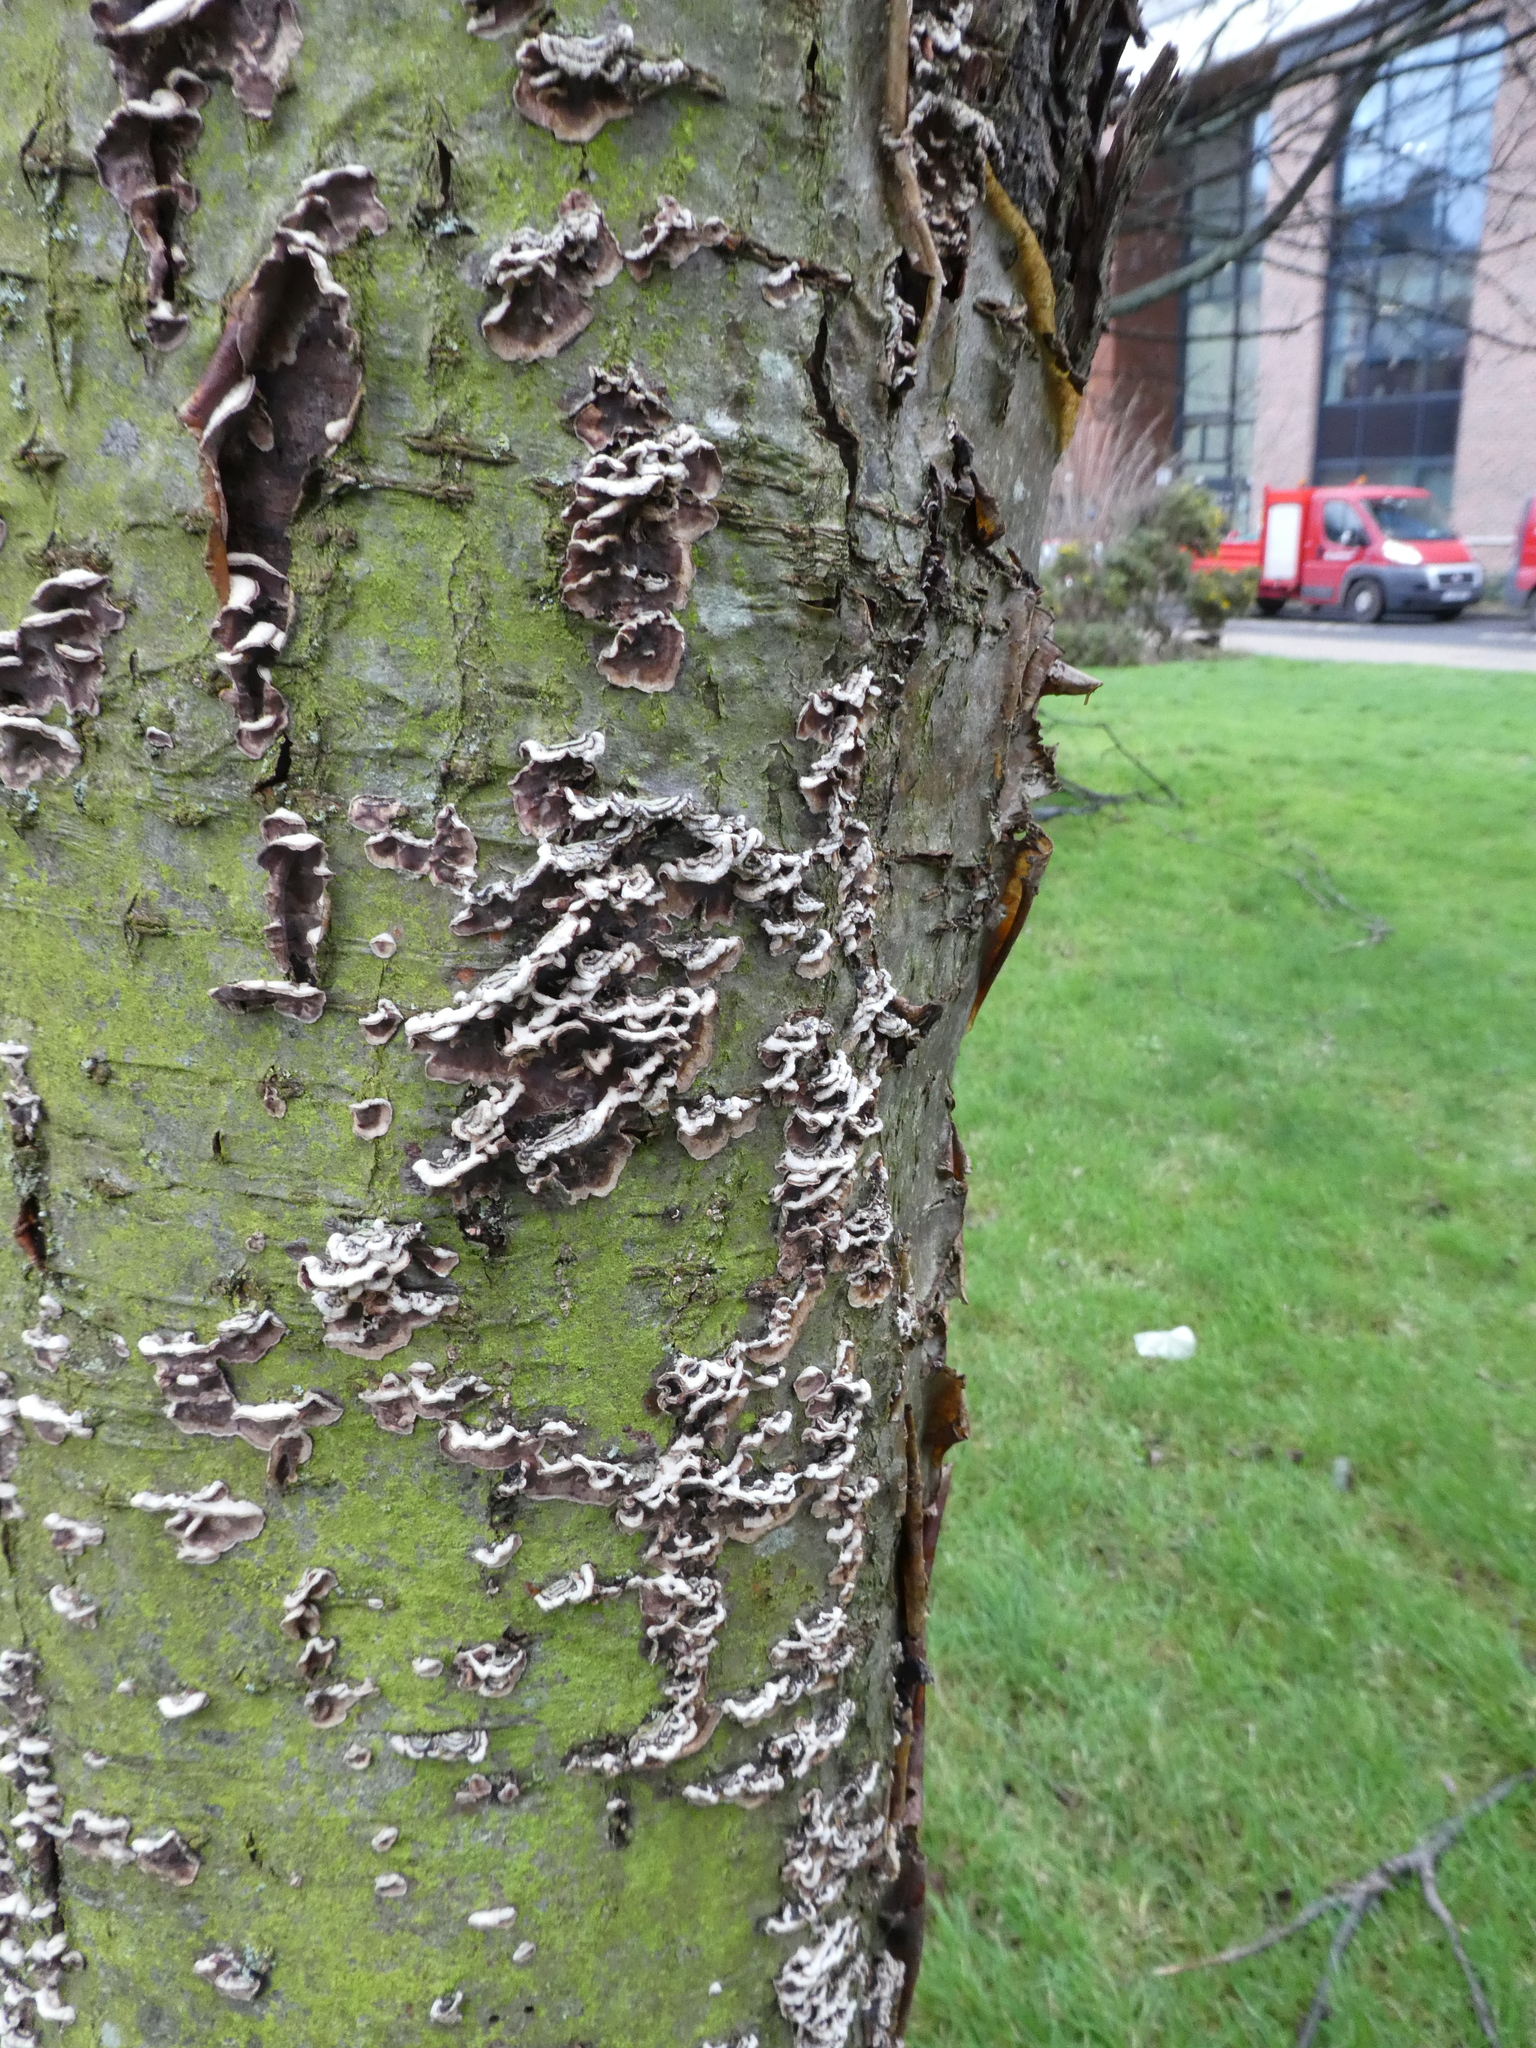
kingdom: Fungi
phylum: Basidiomycota
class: Agaricomycetes
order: Agaricales
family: Cyphellaceae
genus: Chondrostereum
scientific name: Chondrostereum purpureum
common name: Silver leaf disease
